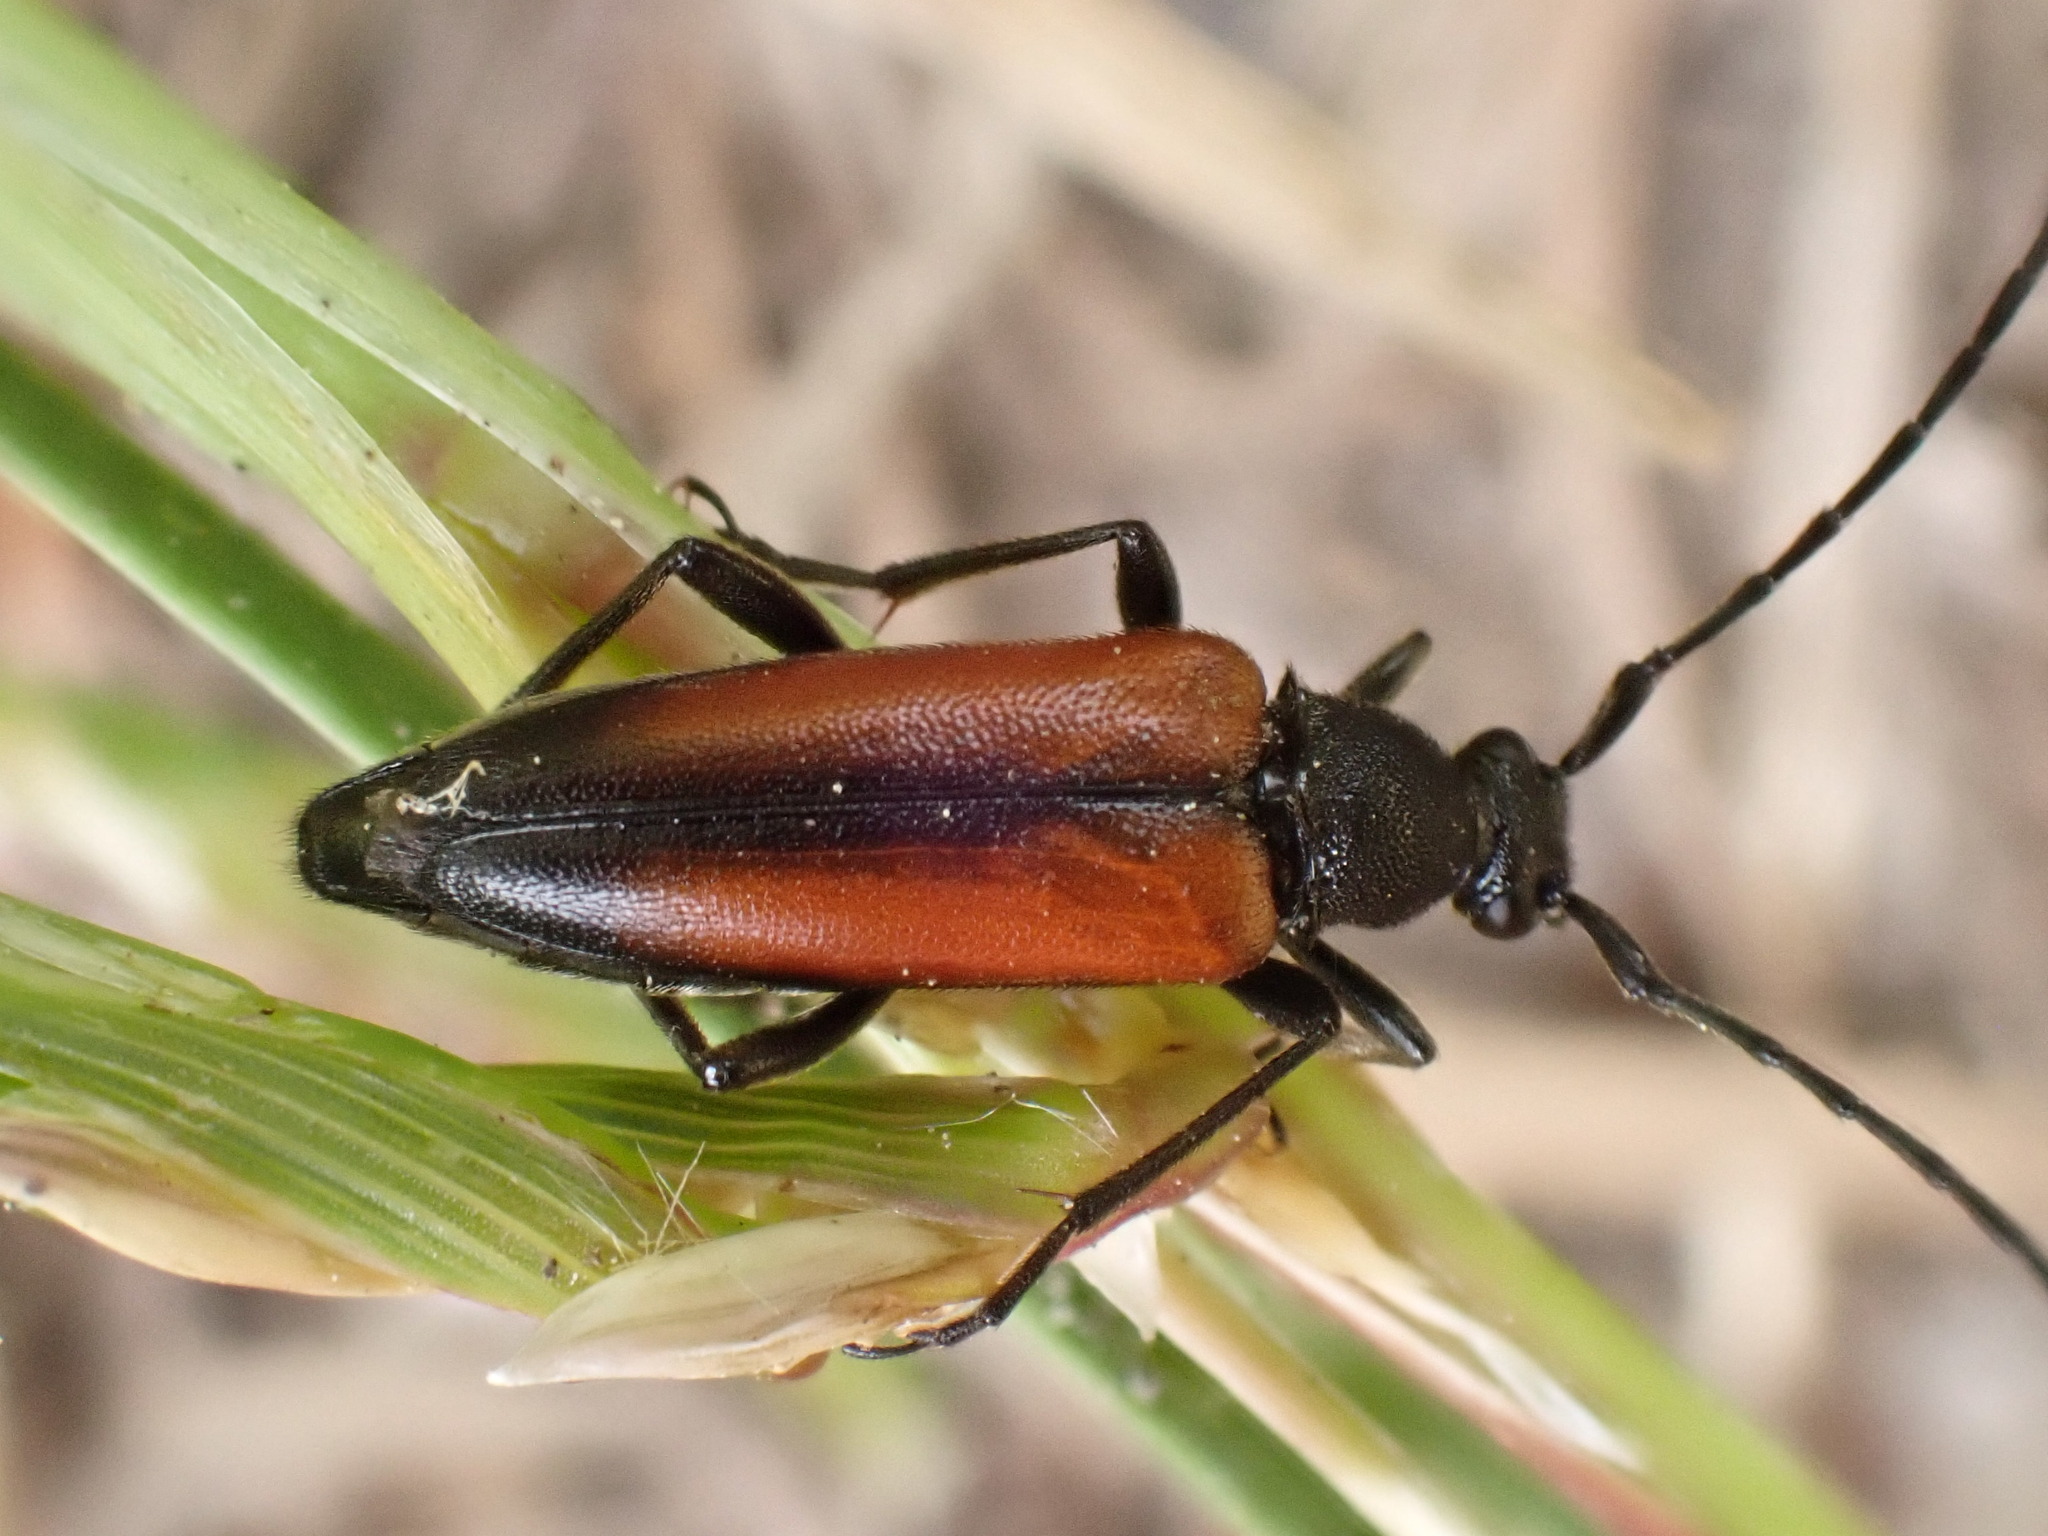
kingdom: Animalia
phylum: Arthropoda
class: Insecta
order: Coleoptera
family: Cerambycidae
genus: Stenurella
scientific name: Stenurella melanura
